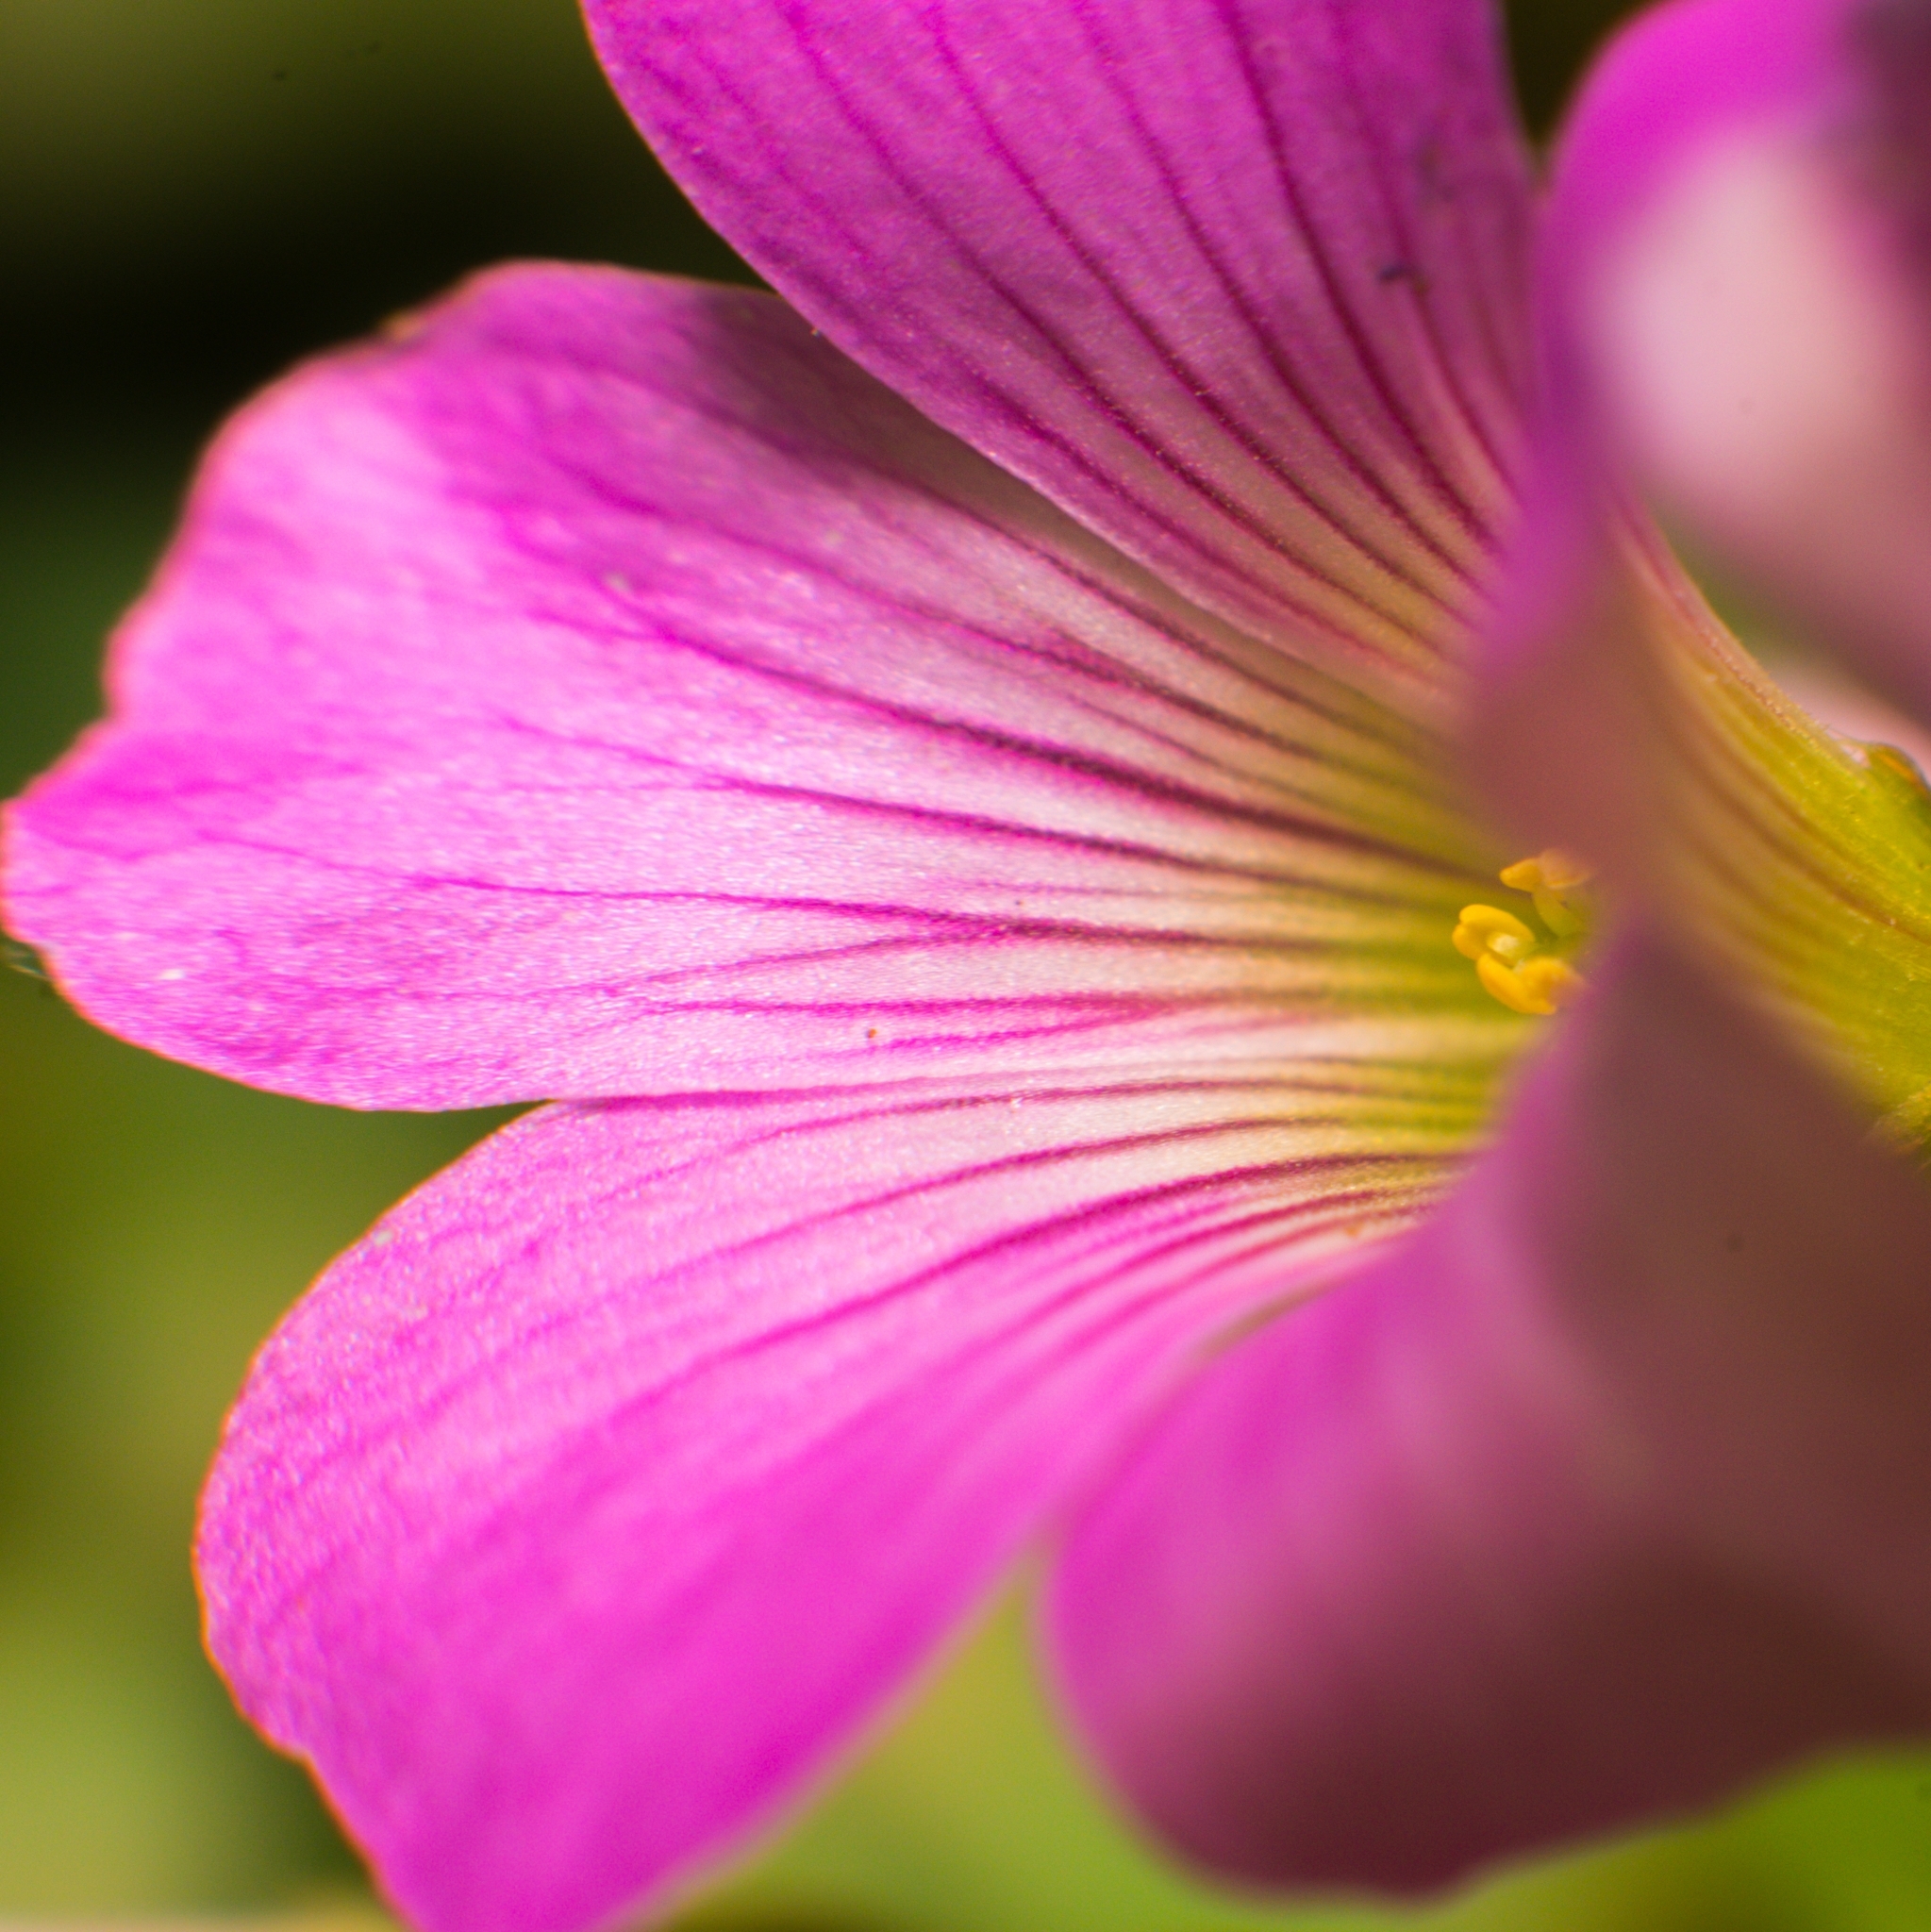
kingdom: Plantae
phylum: Tracheophyta
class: Magnoliopsida
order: Oxalidales
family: Oxalidaceae
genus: Oxalis
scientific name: Oxalis debilis
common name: Large-flowered pink-sorrel
